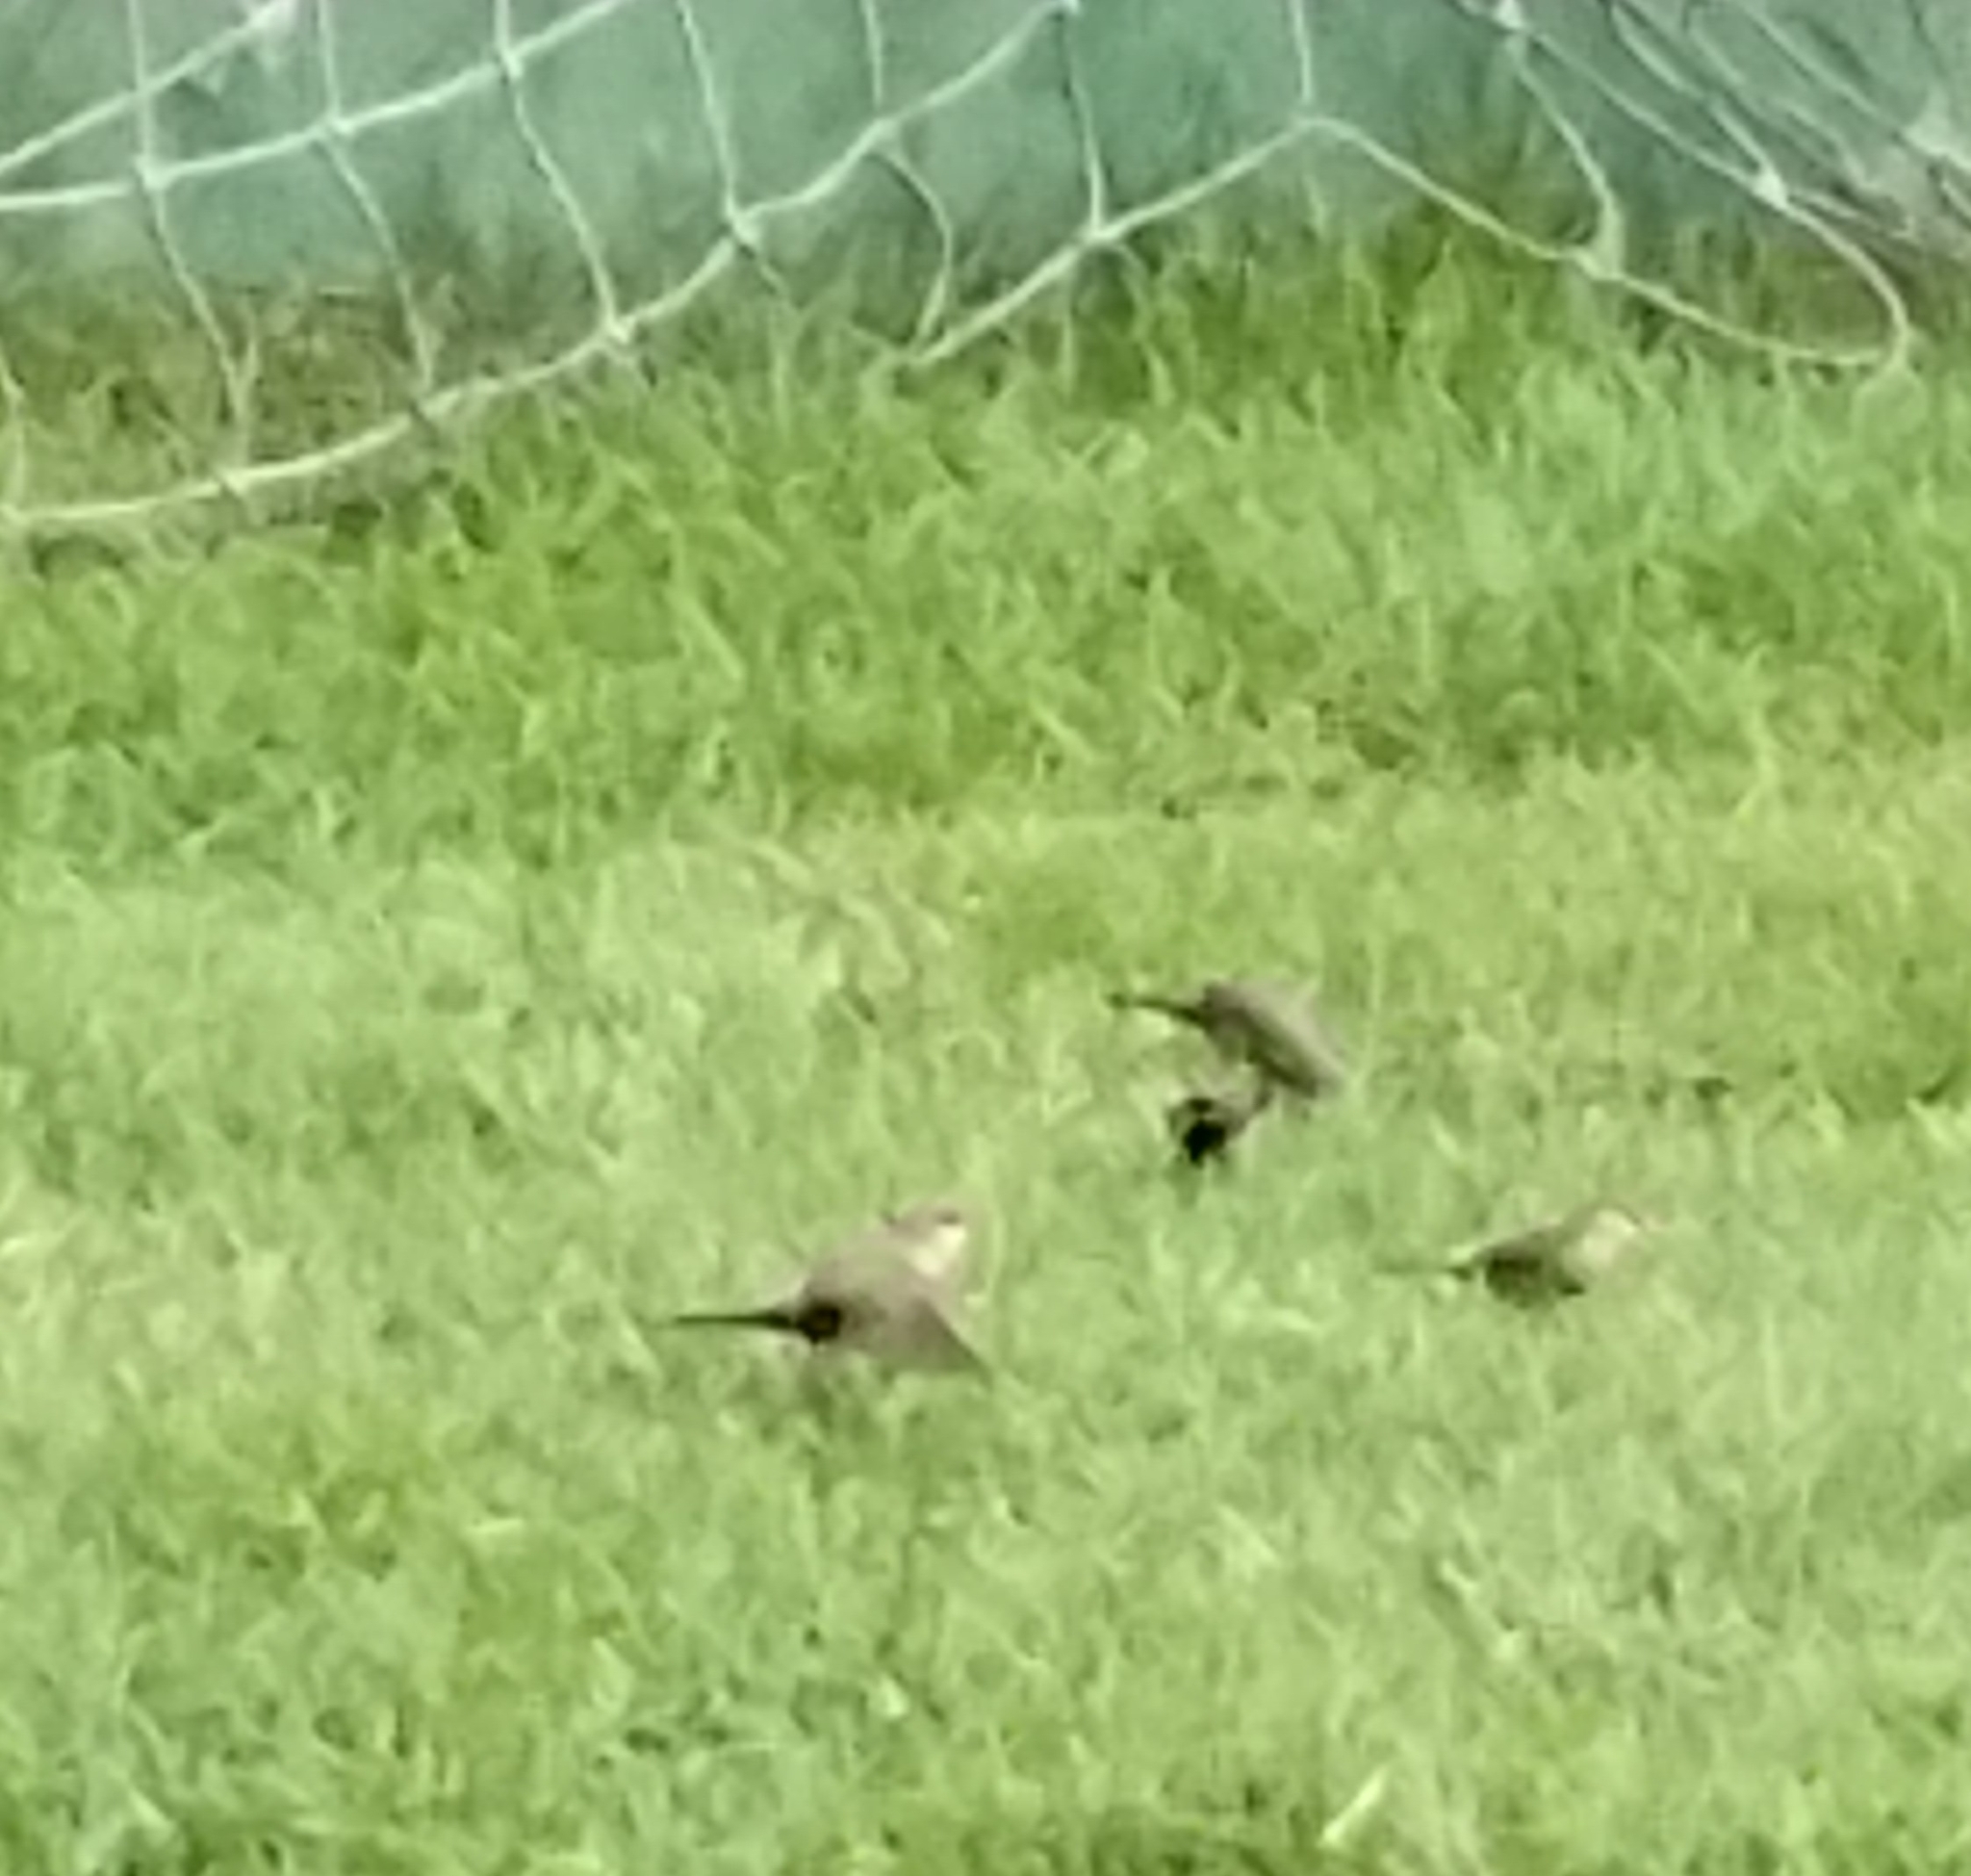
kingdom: Animalia
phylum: Chordata
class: Aves
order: Passeriformes
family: Estrildidae
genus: Estrilda
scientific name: Estrilda astrild
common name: Common waxbill
